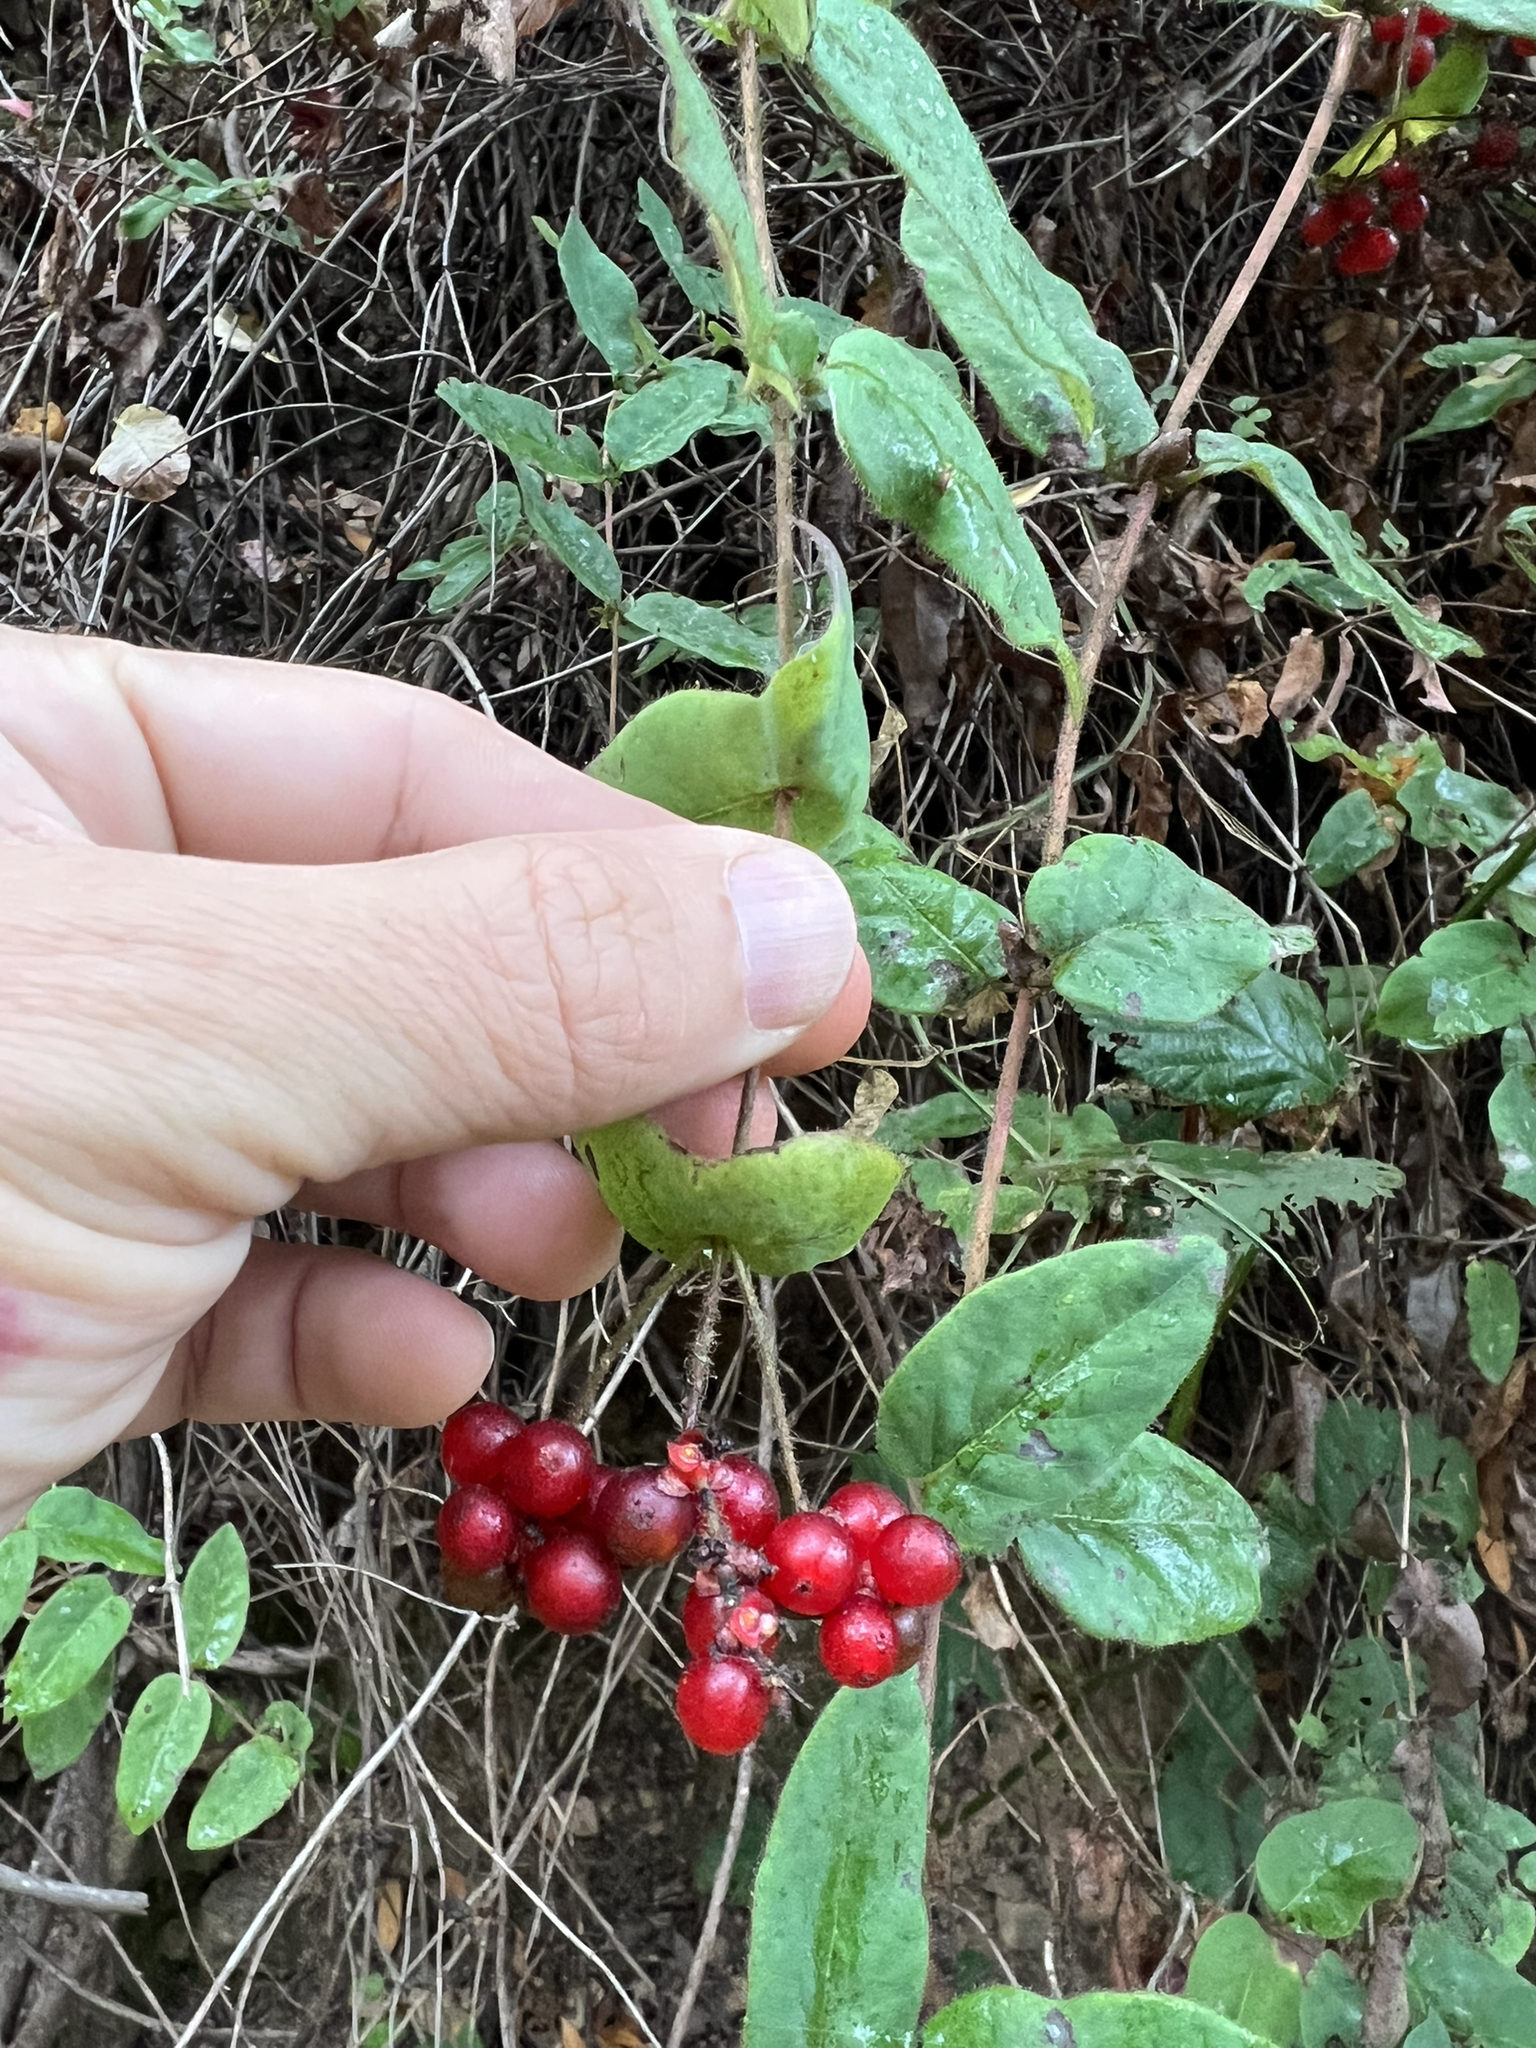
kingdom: Plantae
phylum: Tracheophyta
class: Magnoliopsida
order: Dipsacales
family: Caprifoliaceae
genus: Lonicera
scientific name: Lonicera hispidula
